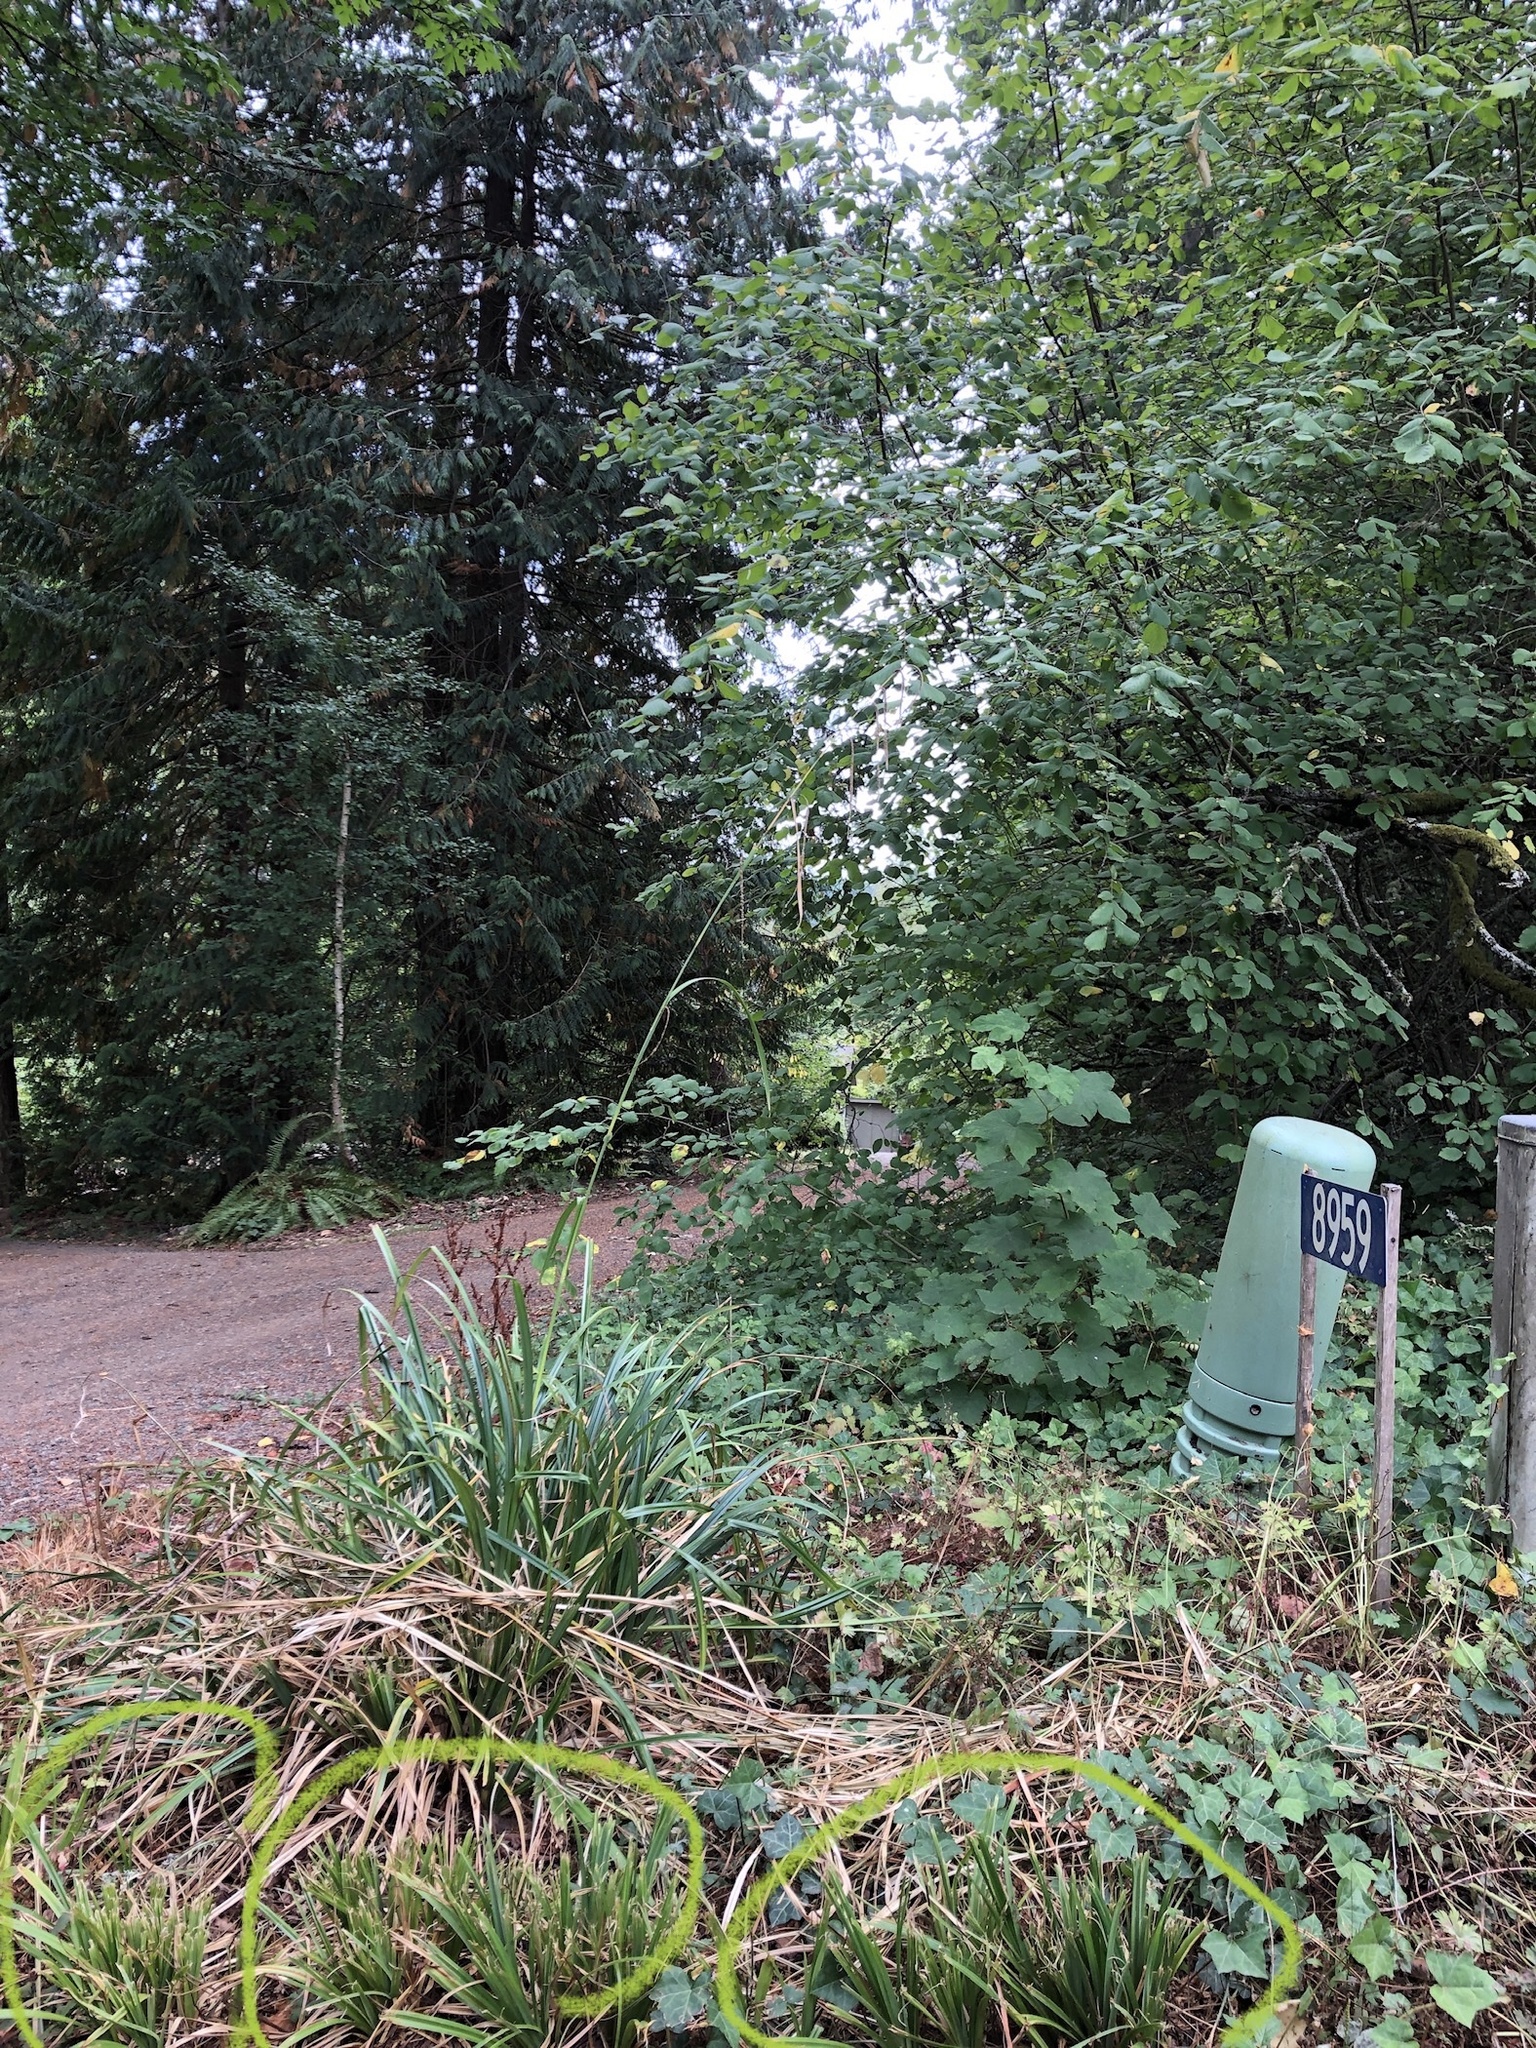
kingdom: Plantae
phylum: Tracheophyta
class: Liliopsida
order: Poales
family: Cyperaceae
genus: Carex
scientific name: Carex pendula
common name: Pendulous sedge
